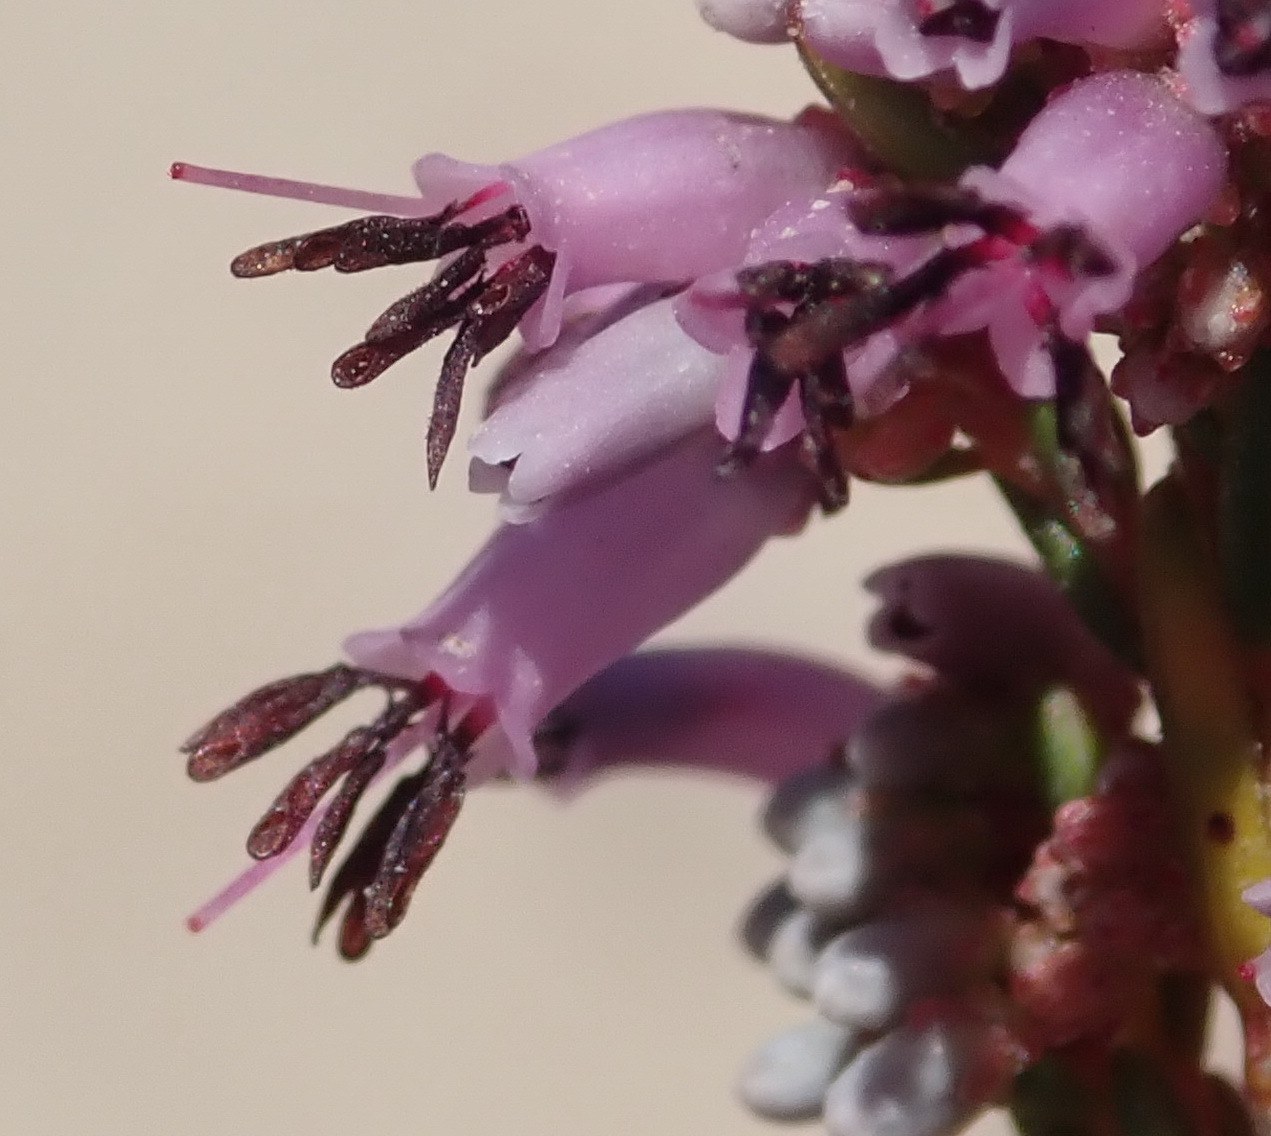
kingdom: Plantae
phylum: Tracheophyta
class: Magnoliopsida
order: Ericales
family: Ericaceae
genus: Erica
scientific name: Erica rosacea
